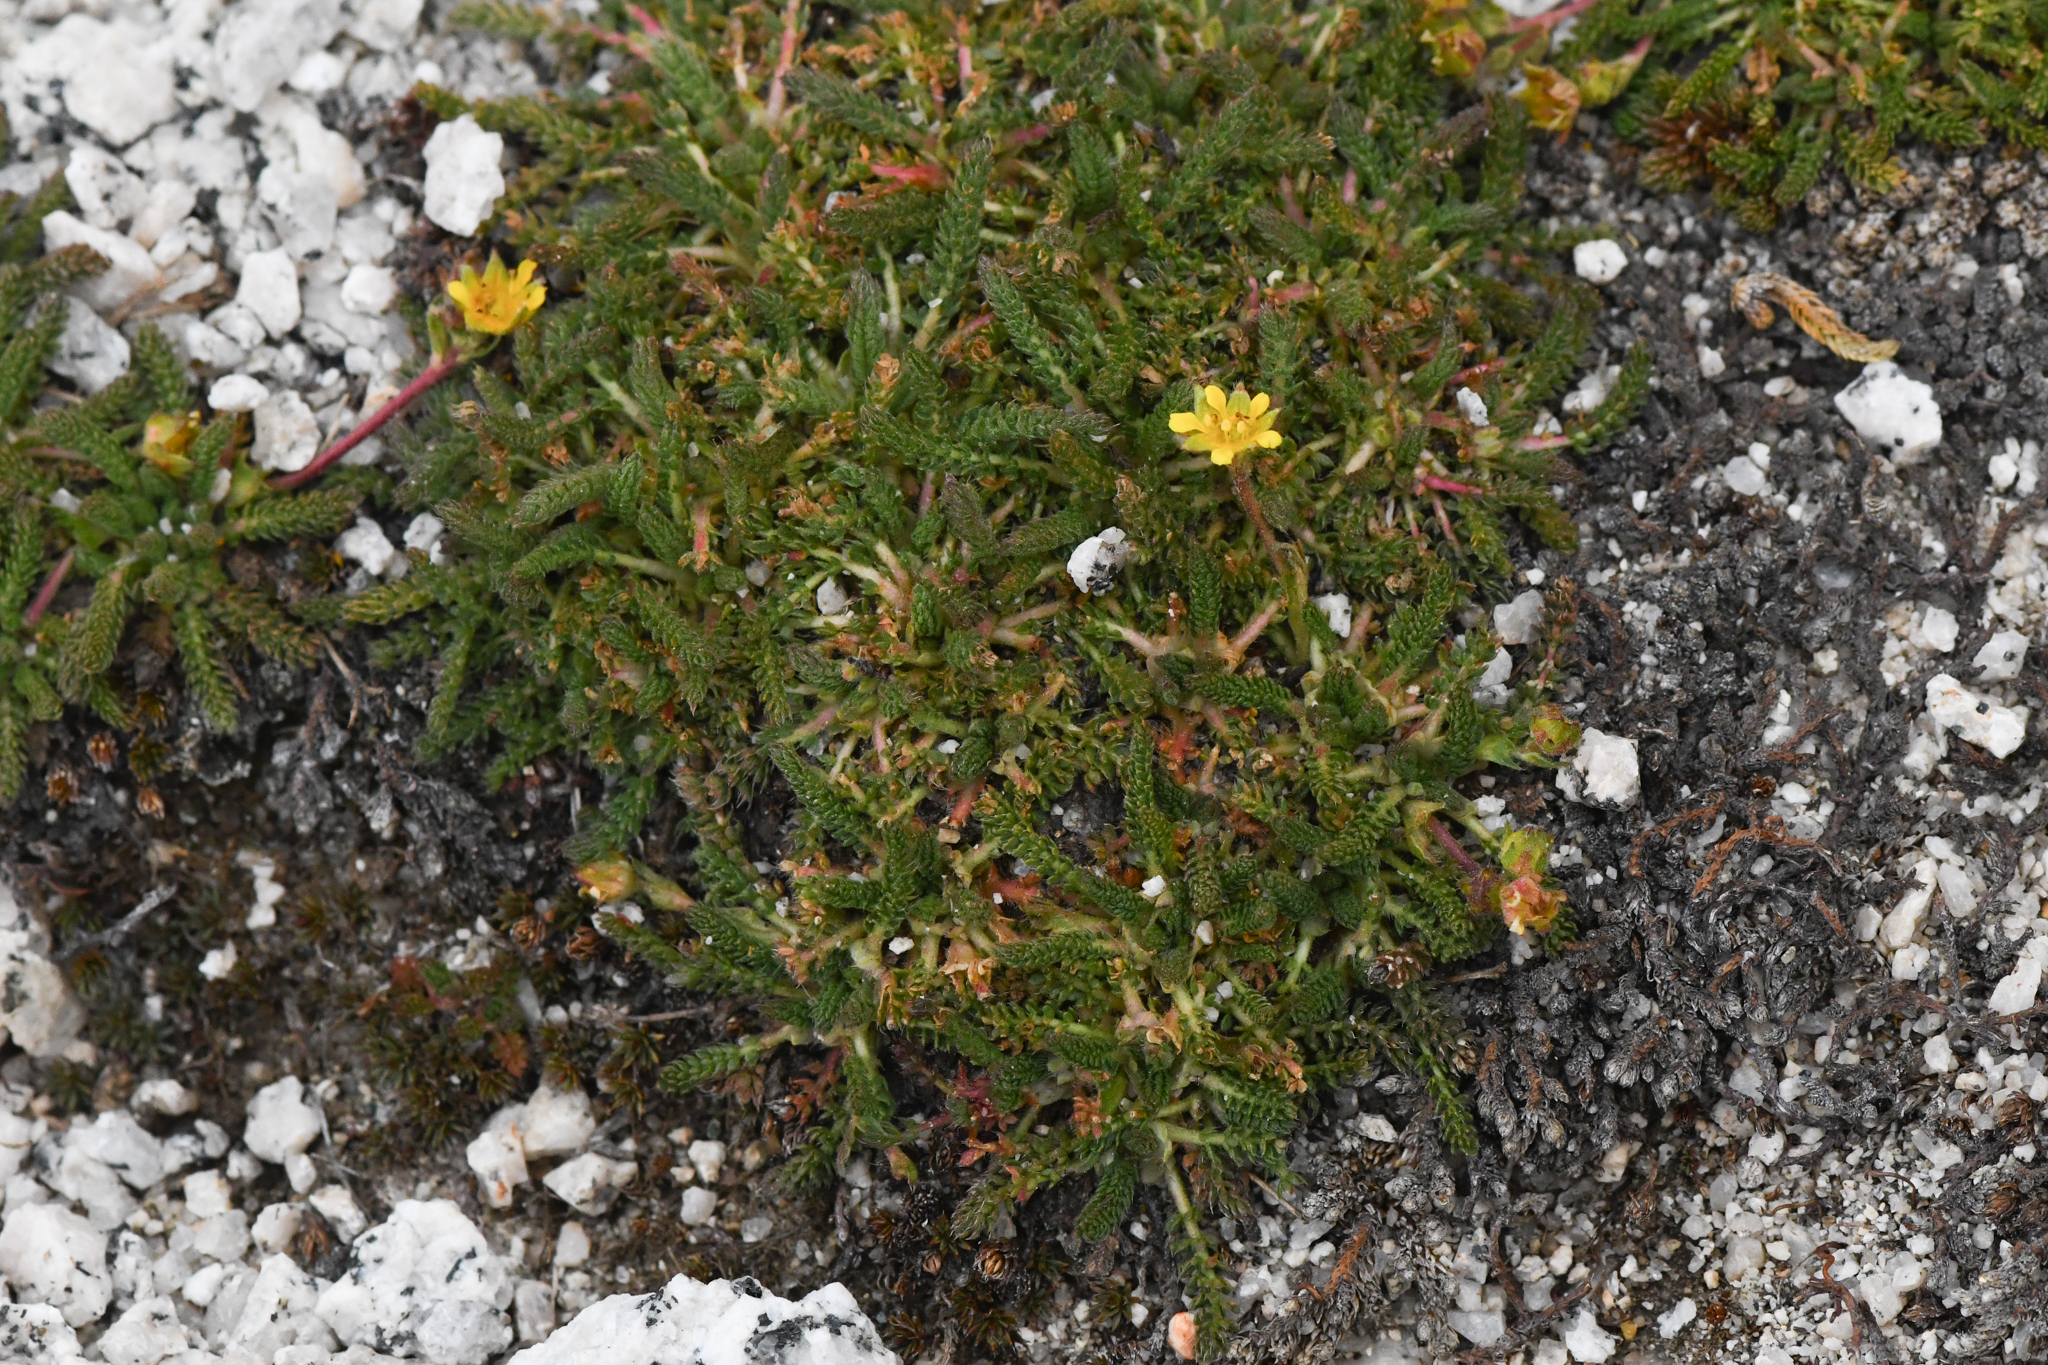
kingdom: Plantae
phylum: Tracheophyta
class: Magnoliopsida
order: Rosales
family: Rosaceae
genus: Potentilla
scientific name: Potentilla
